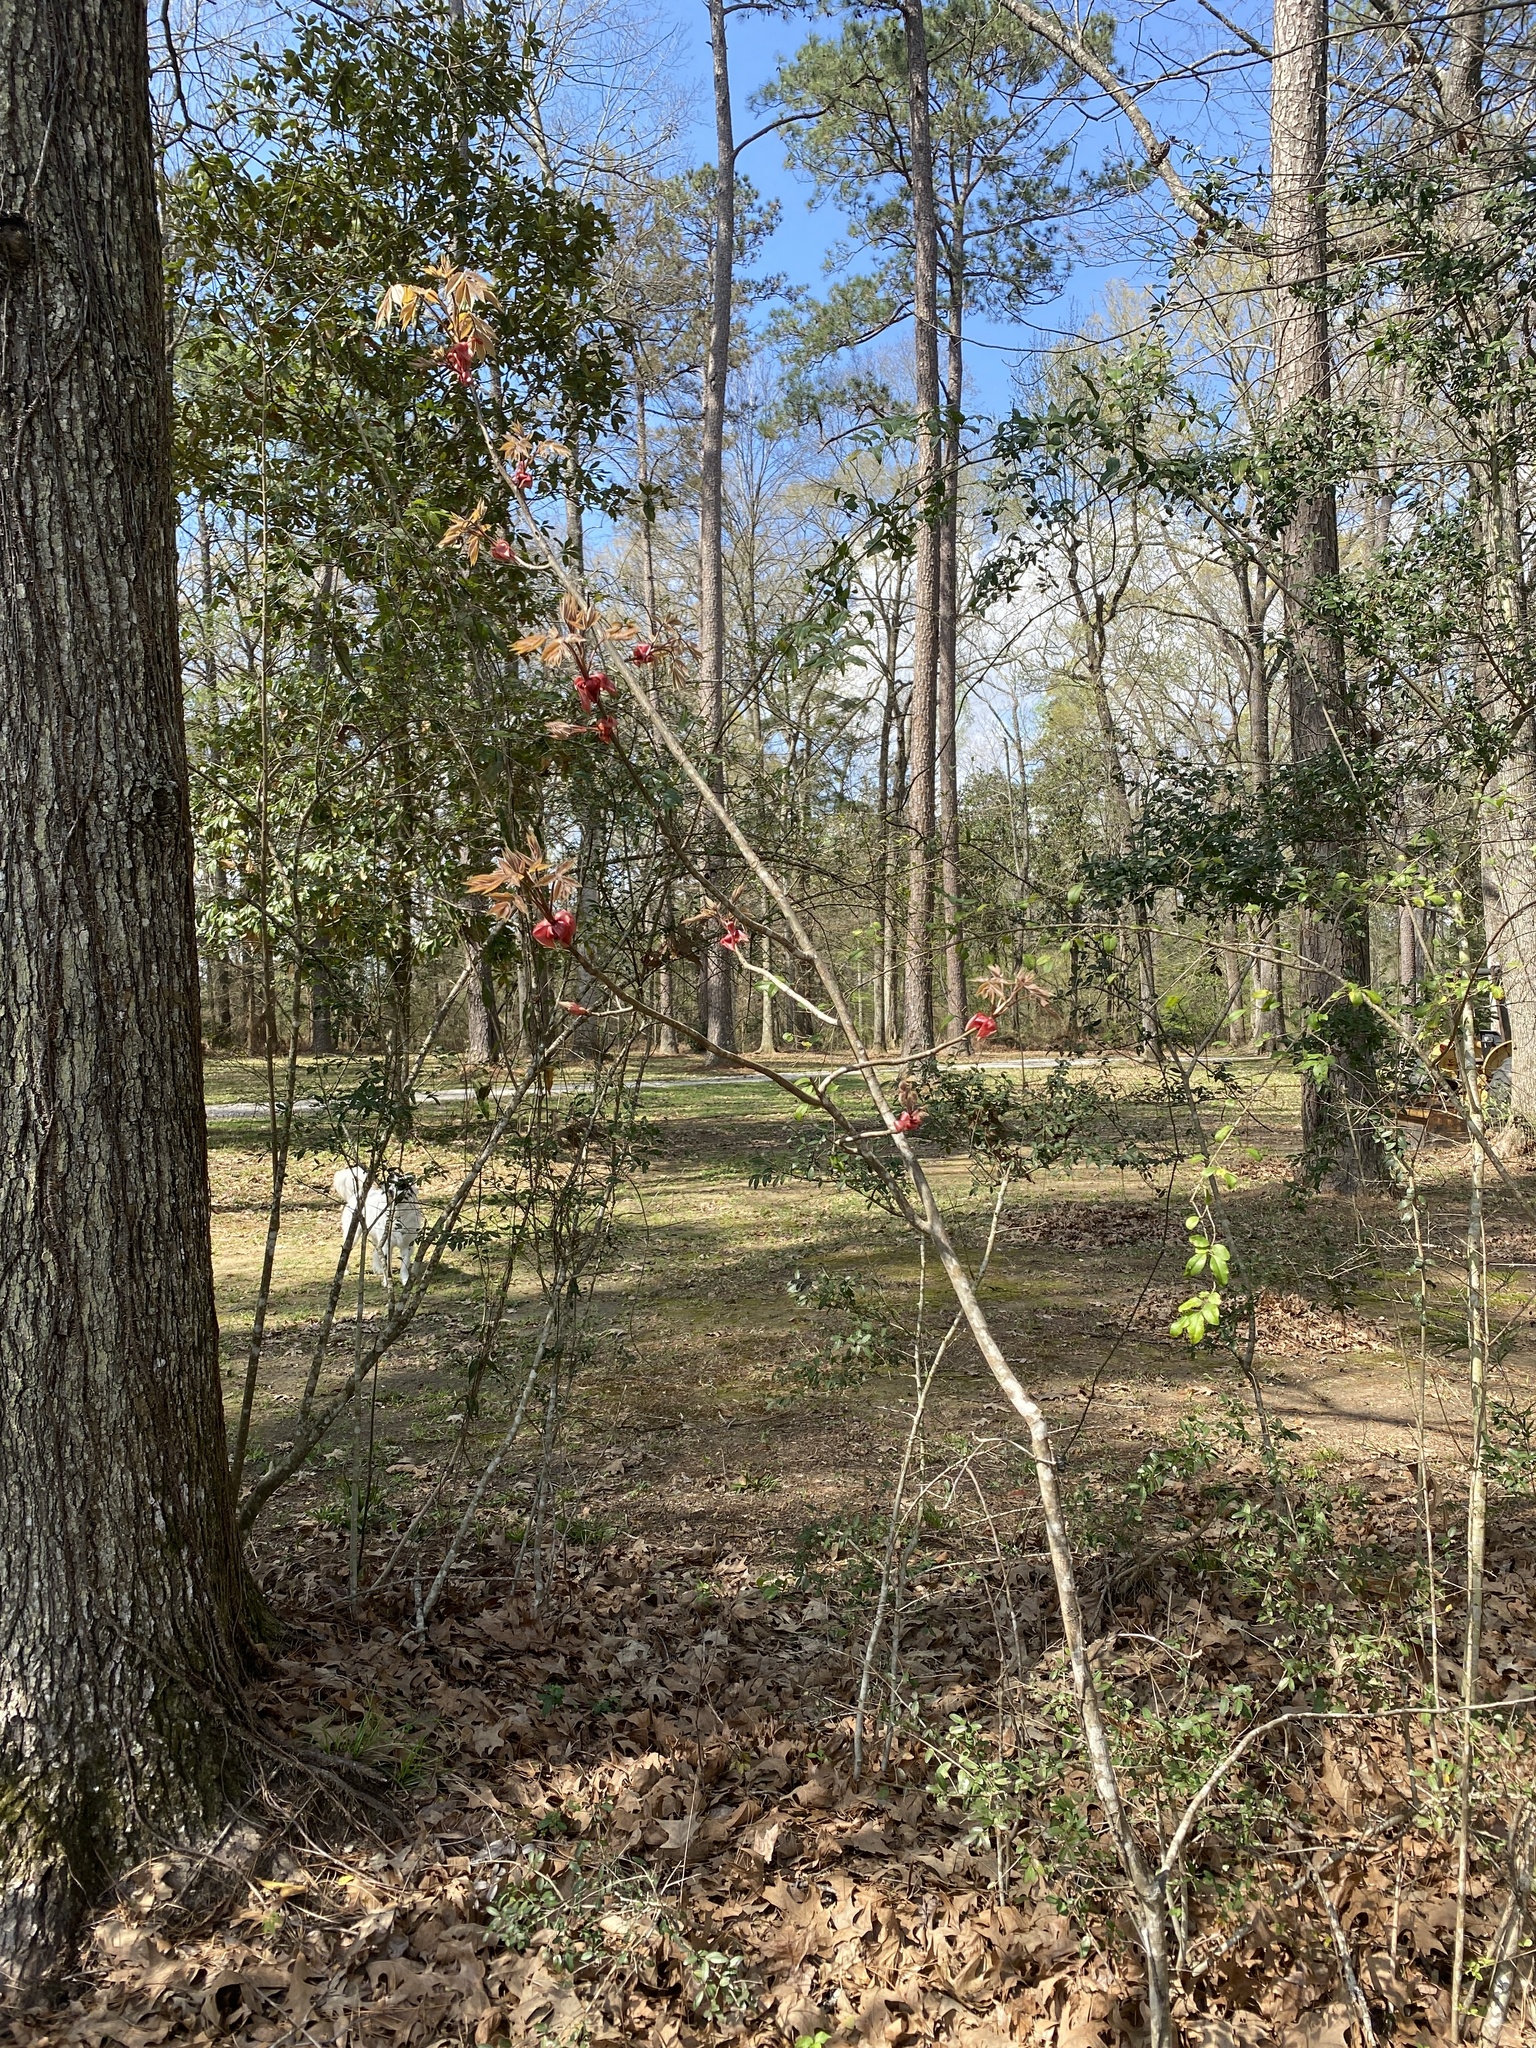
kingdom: Plantae
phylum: Tracheophyta
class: Magnoliopsida
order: Fagales
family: Juglandaceae
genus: Carya
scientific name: Carya glabra
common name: Pignut hickory
